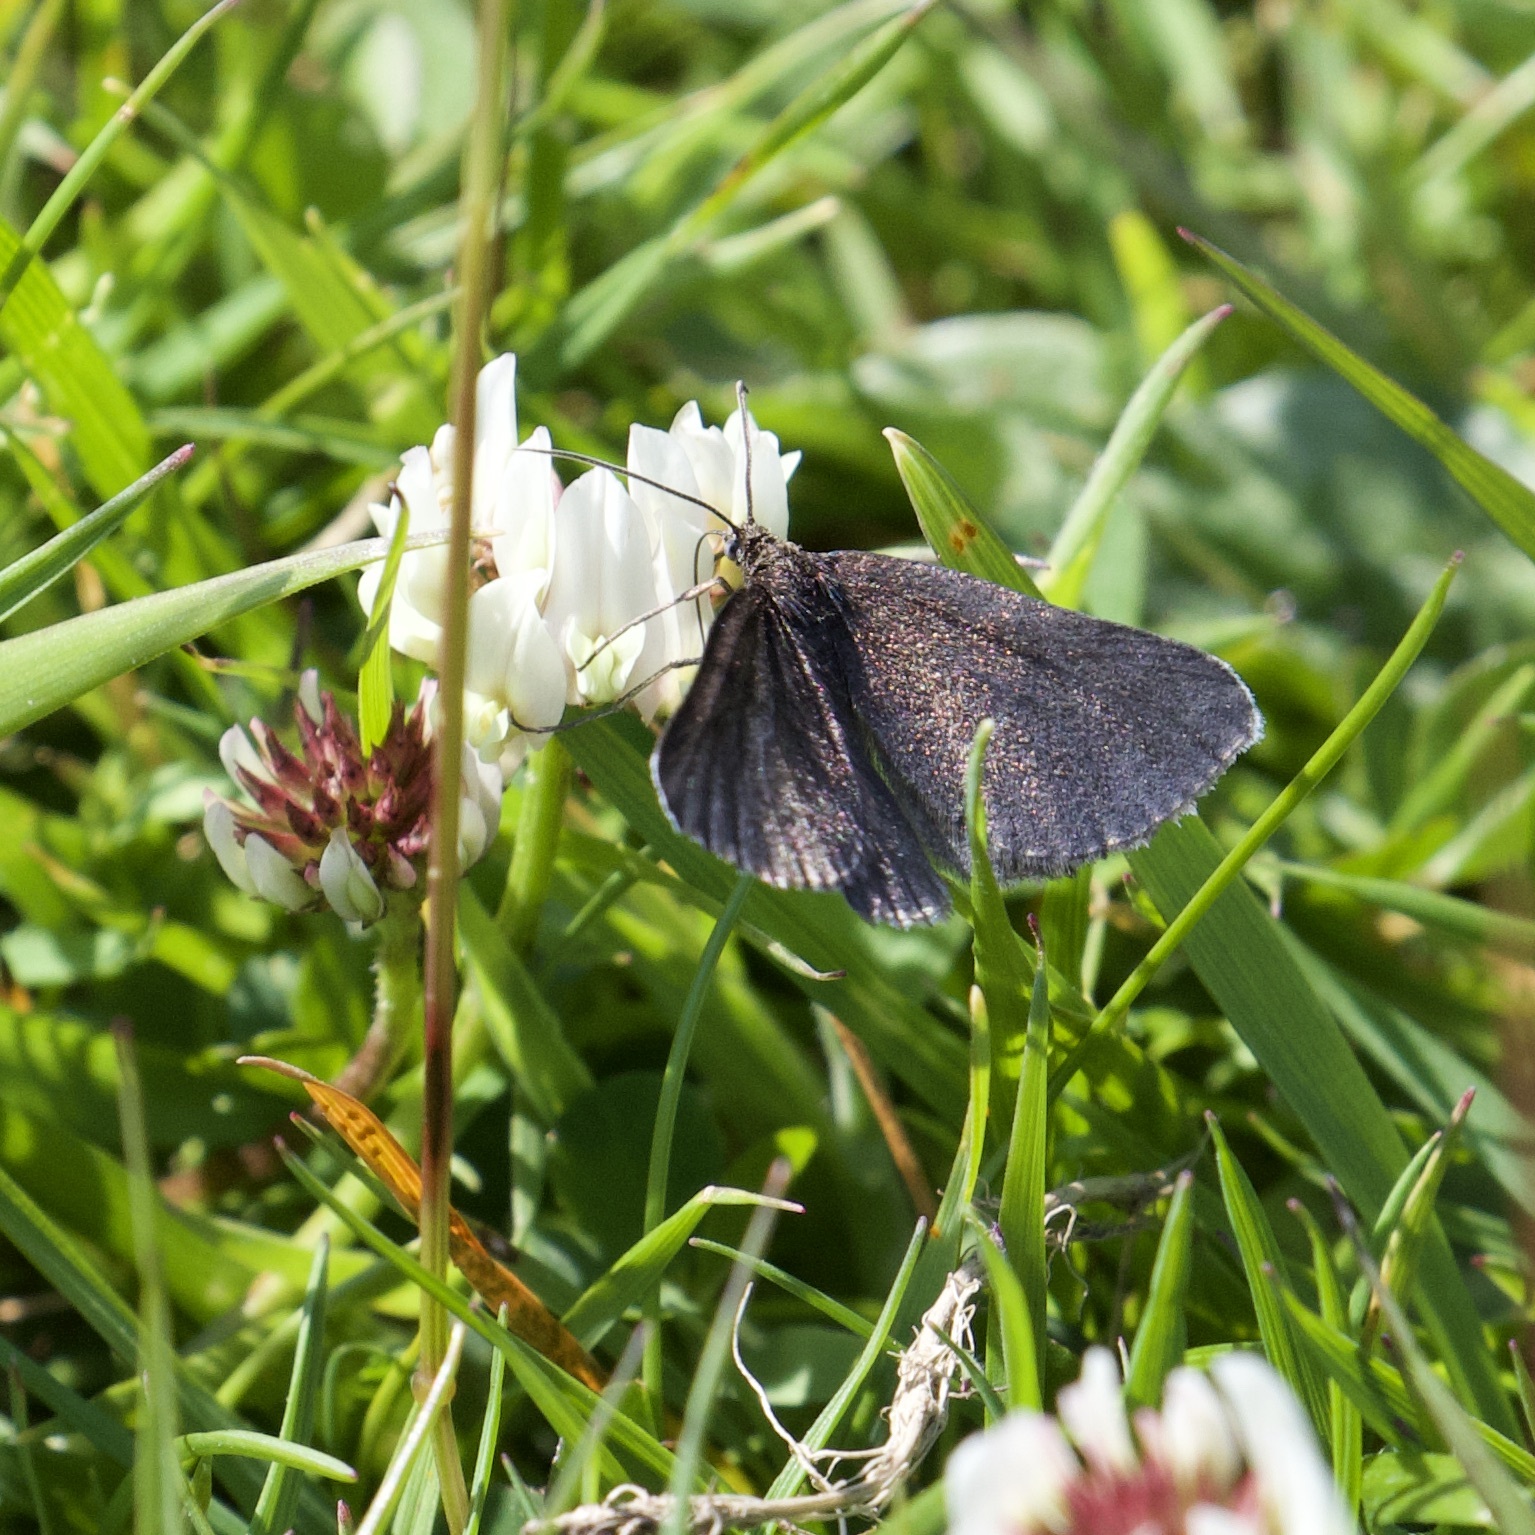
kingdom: Animalia
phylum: Arthropoda
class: Insecta
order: Lepidoptera
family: Geometridae
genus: Odezia
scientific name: Odezia atrata
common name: Chimney sweeper
